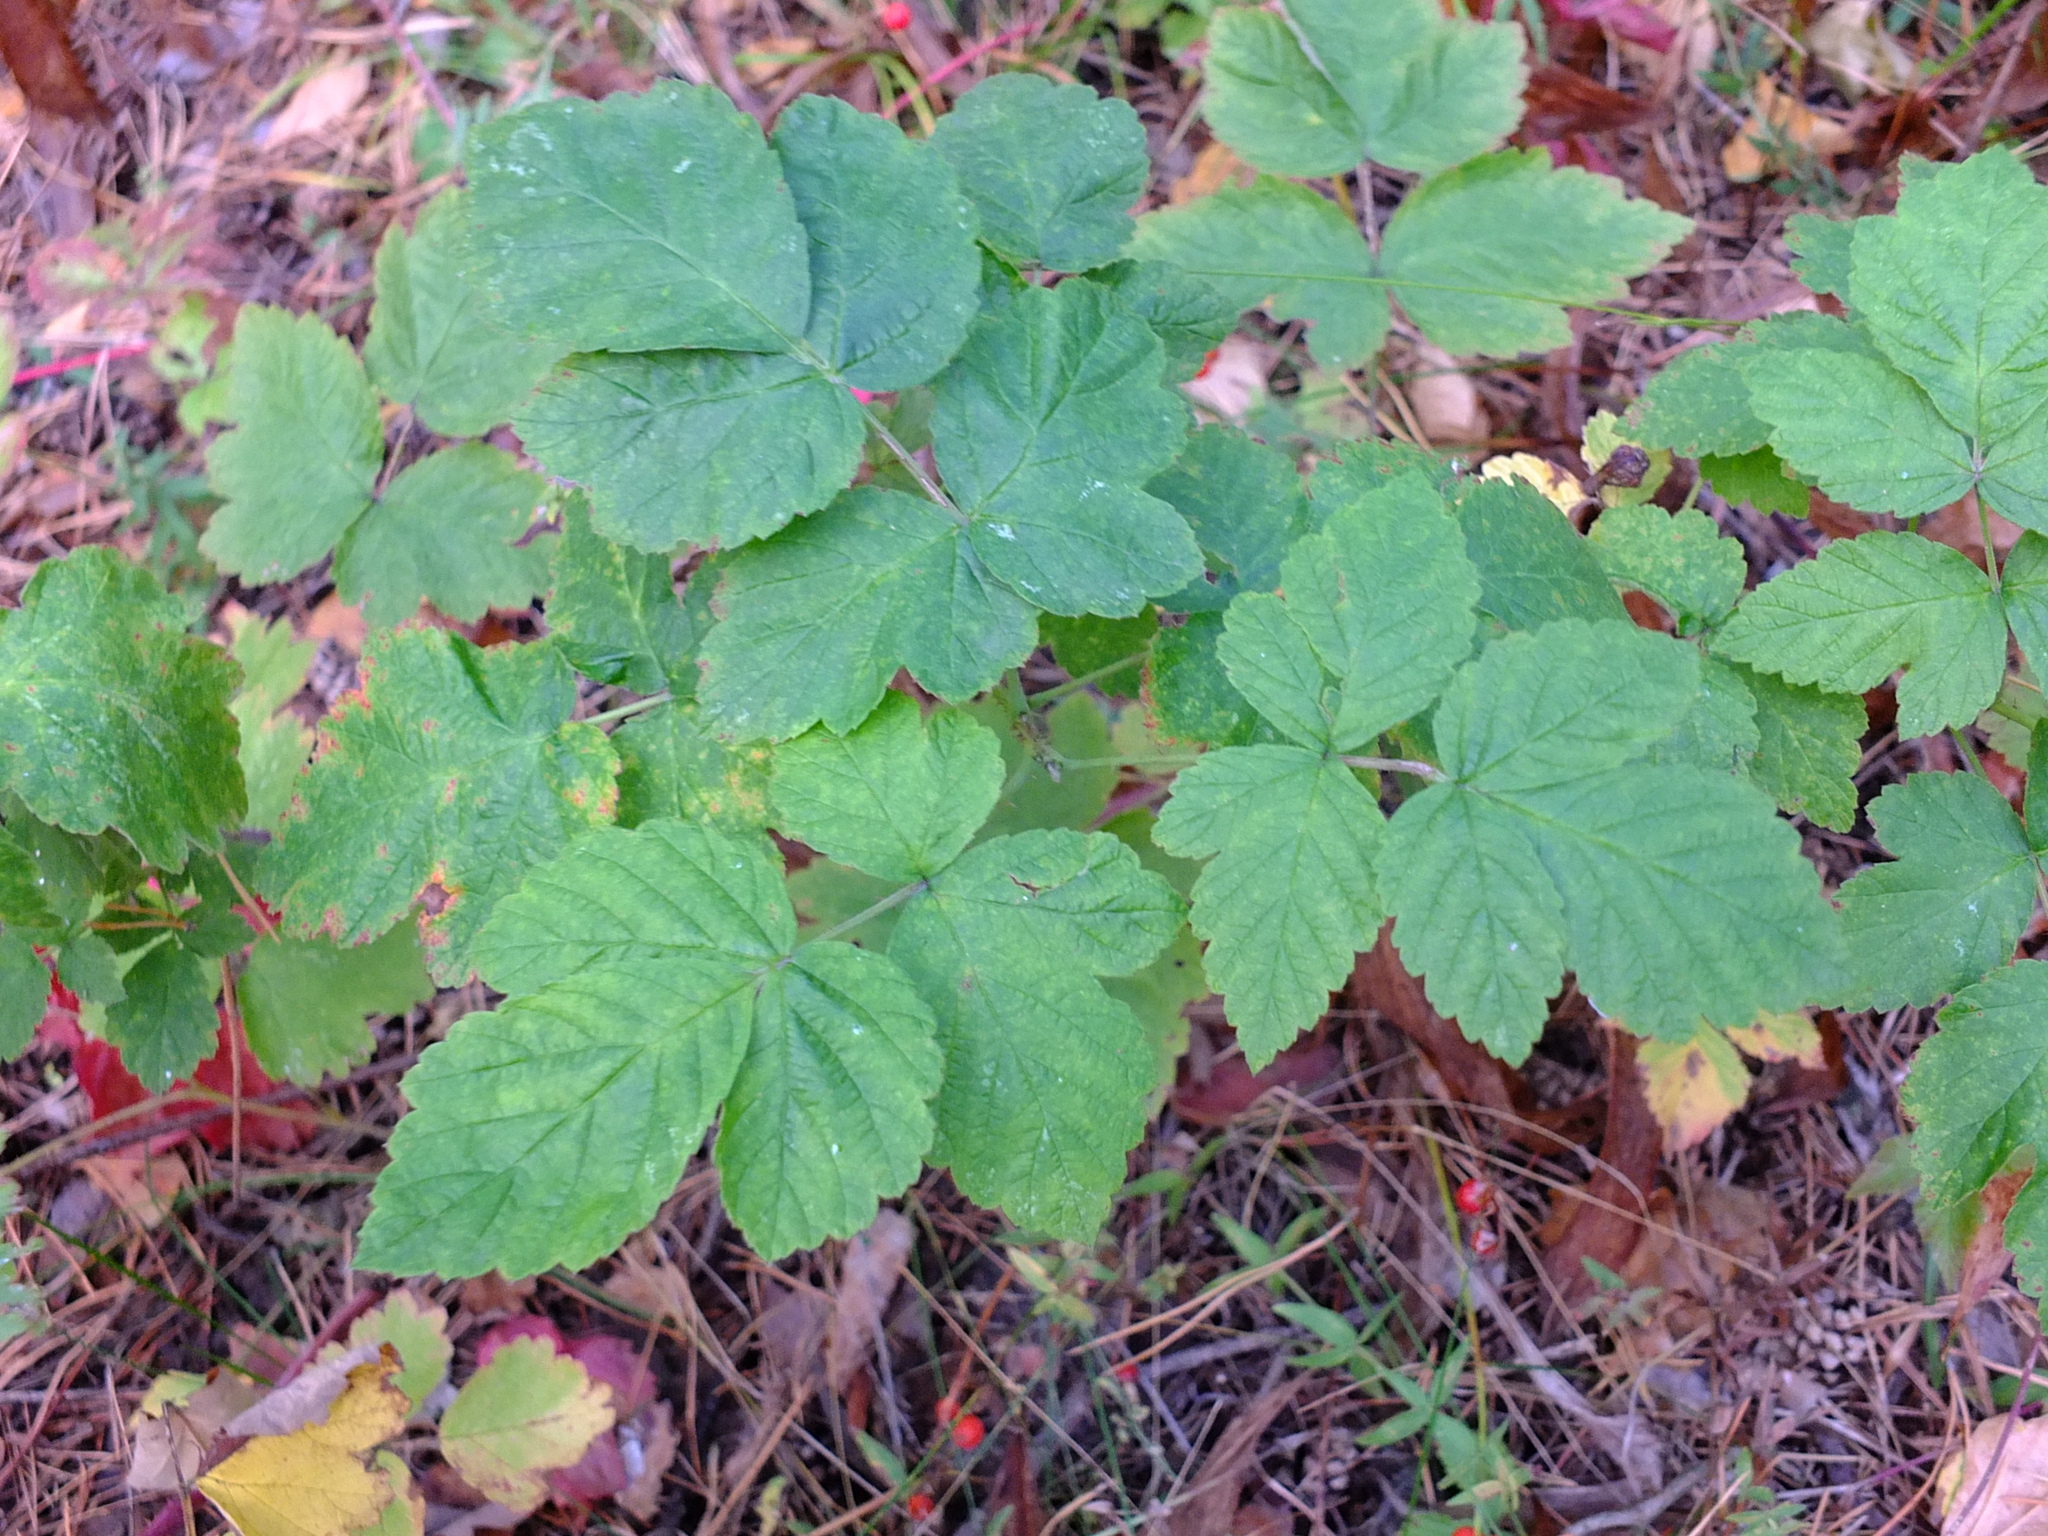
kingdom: Plantae
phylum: Tracheophyta
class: Magnoliopsida
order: Rosales
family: Rosaceae
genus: Rubus
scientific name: Rubus idaeus
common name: Raspberry
